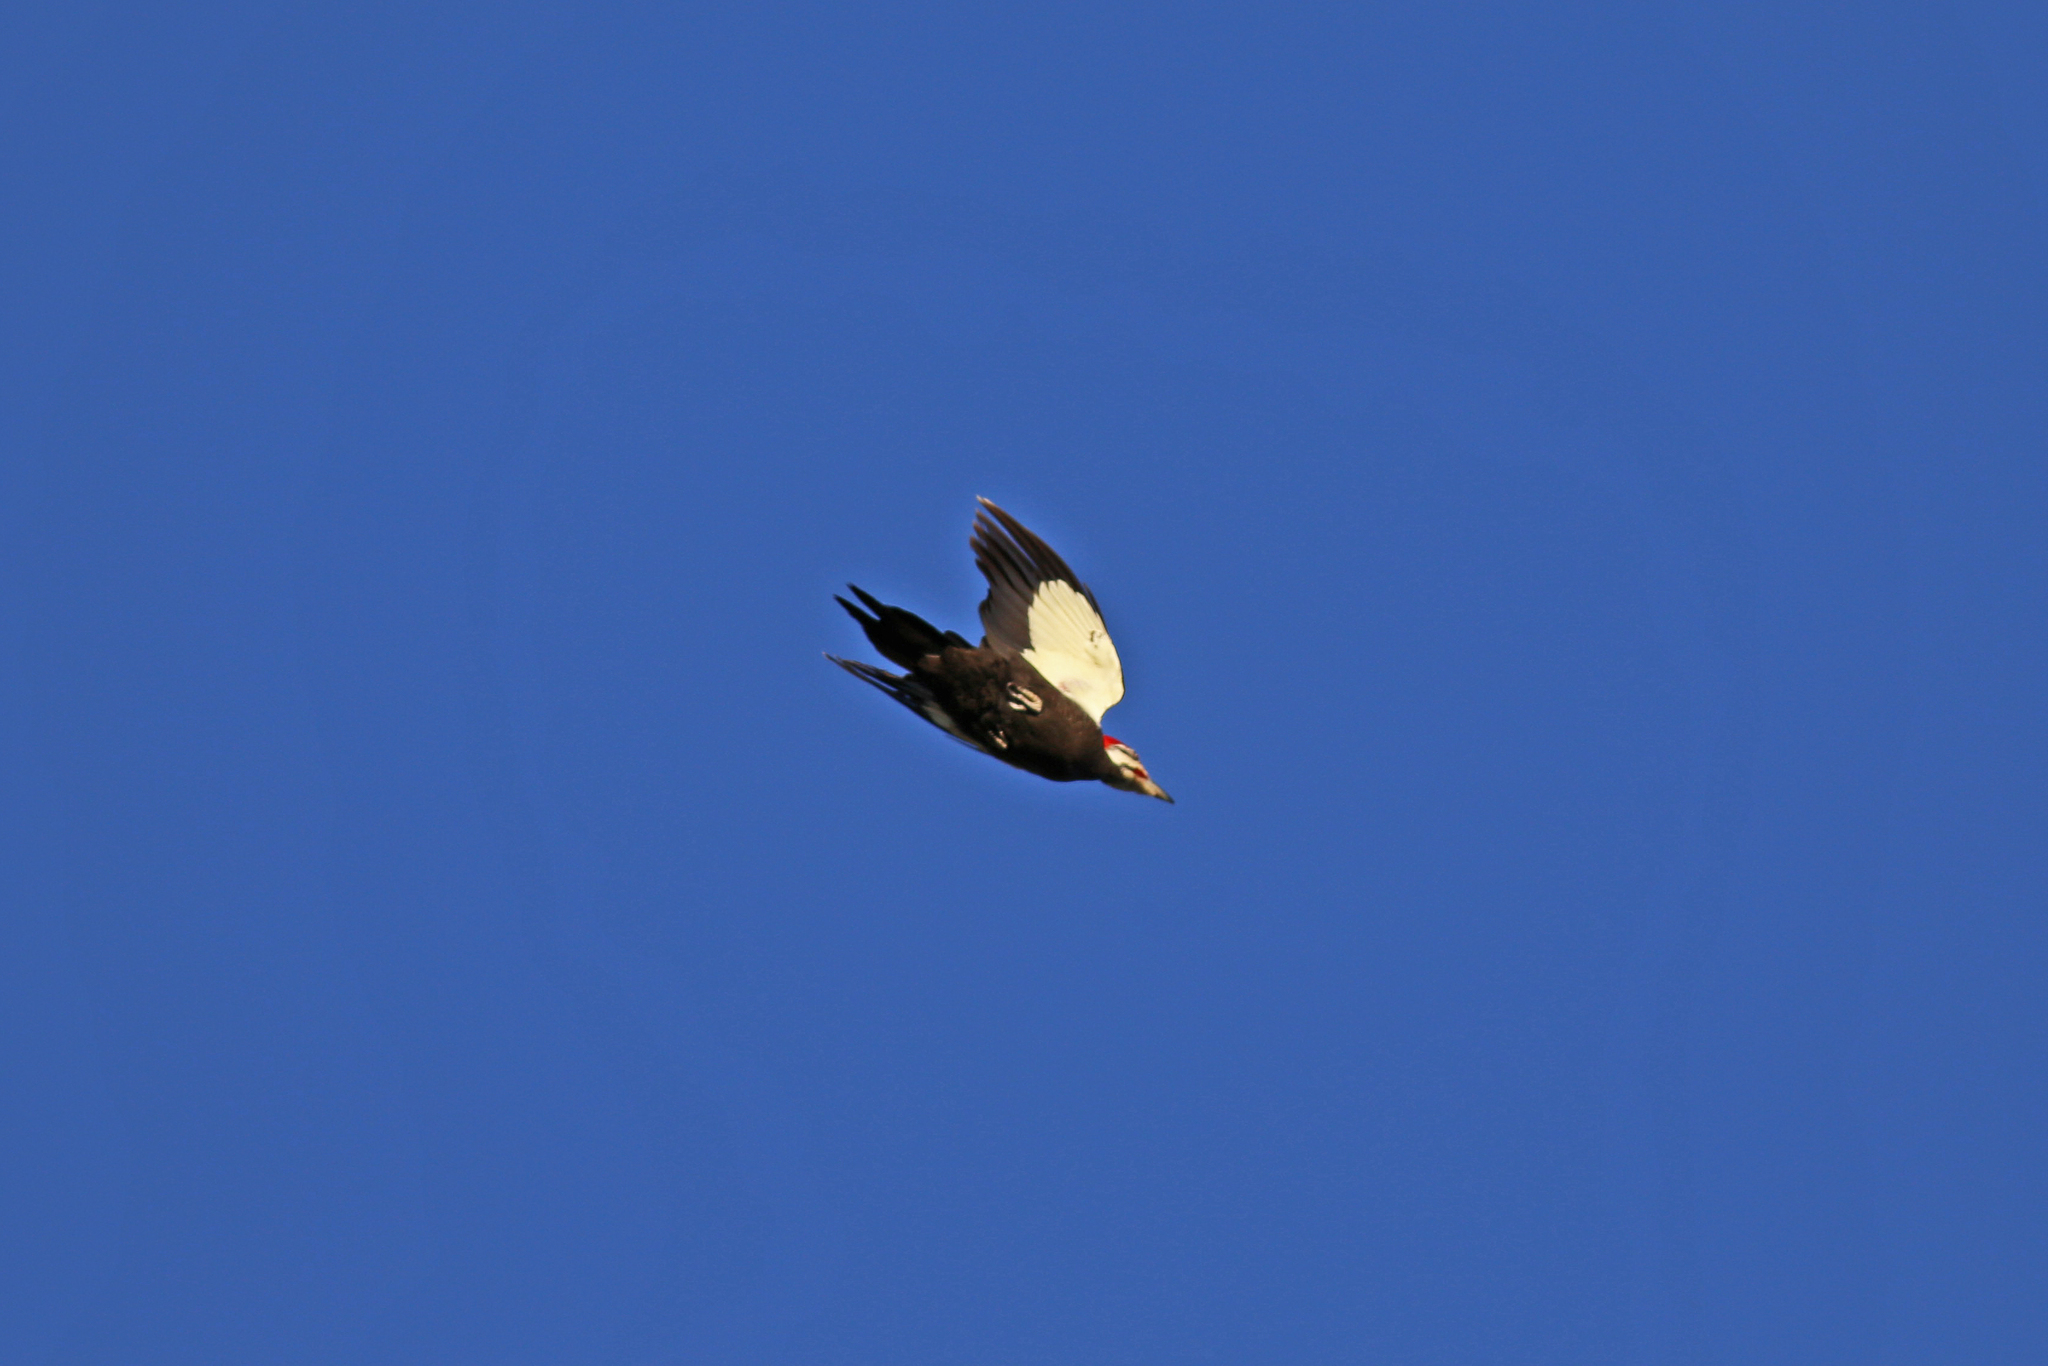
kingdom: Animalia
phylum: Chordata
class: Aves
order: Piciformes
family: Picidae
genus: Dryocopus
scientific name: Dryocopus pileatus
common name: Pileated woodpecker
